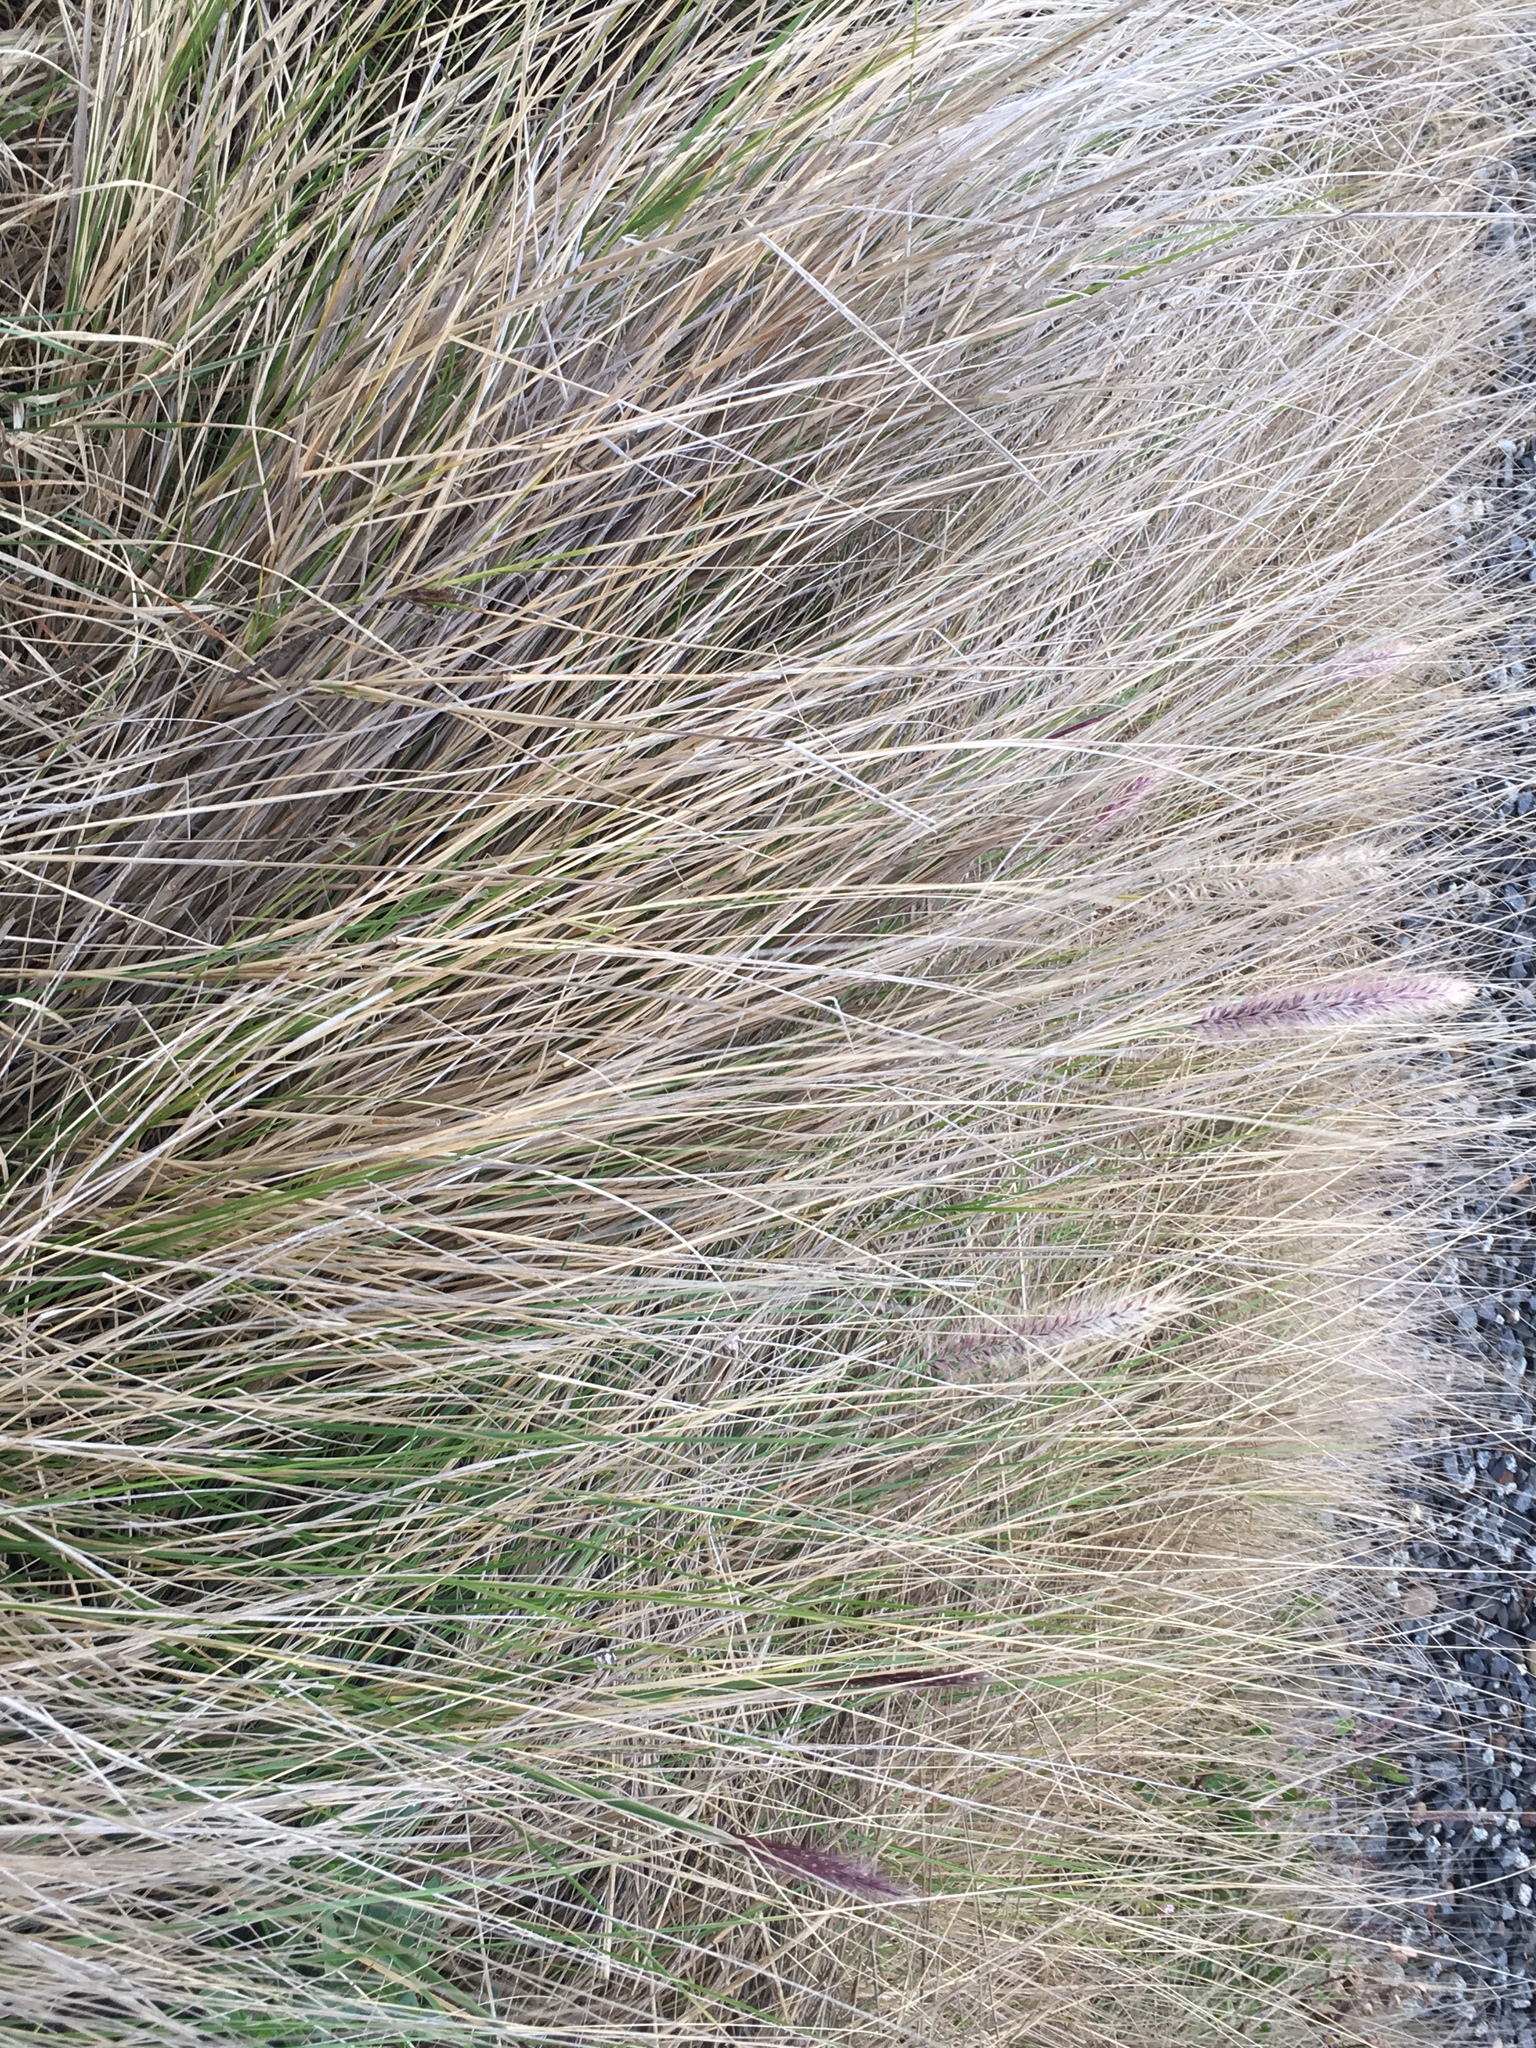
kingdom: Plantae
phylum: Tracheophyta
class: Liliopsida
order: Poales
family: Poaceae
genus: Cenchrus
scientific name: Cenchrus setaceus
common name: Crimson fountaingrass
